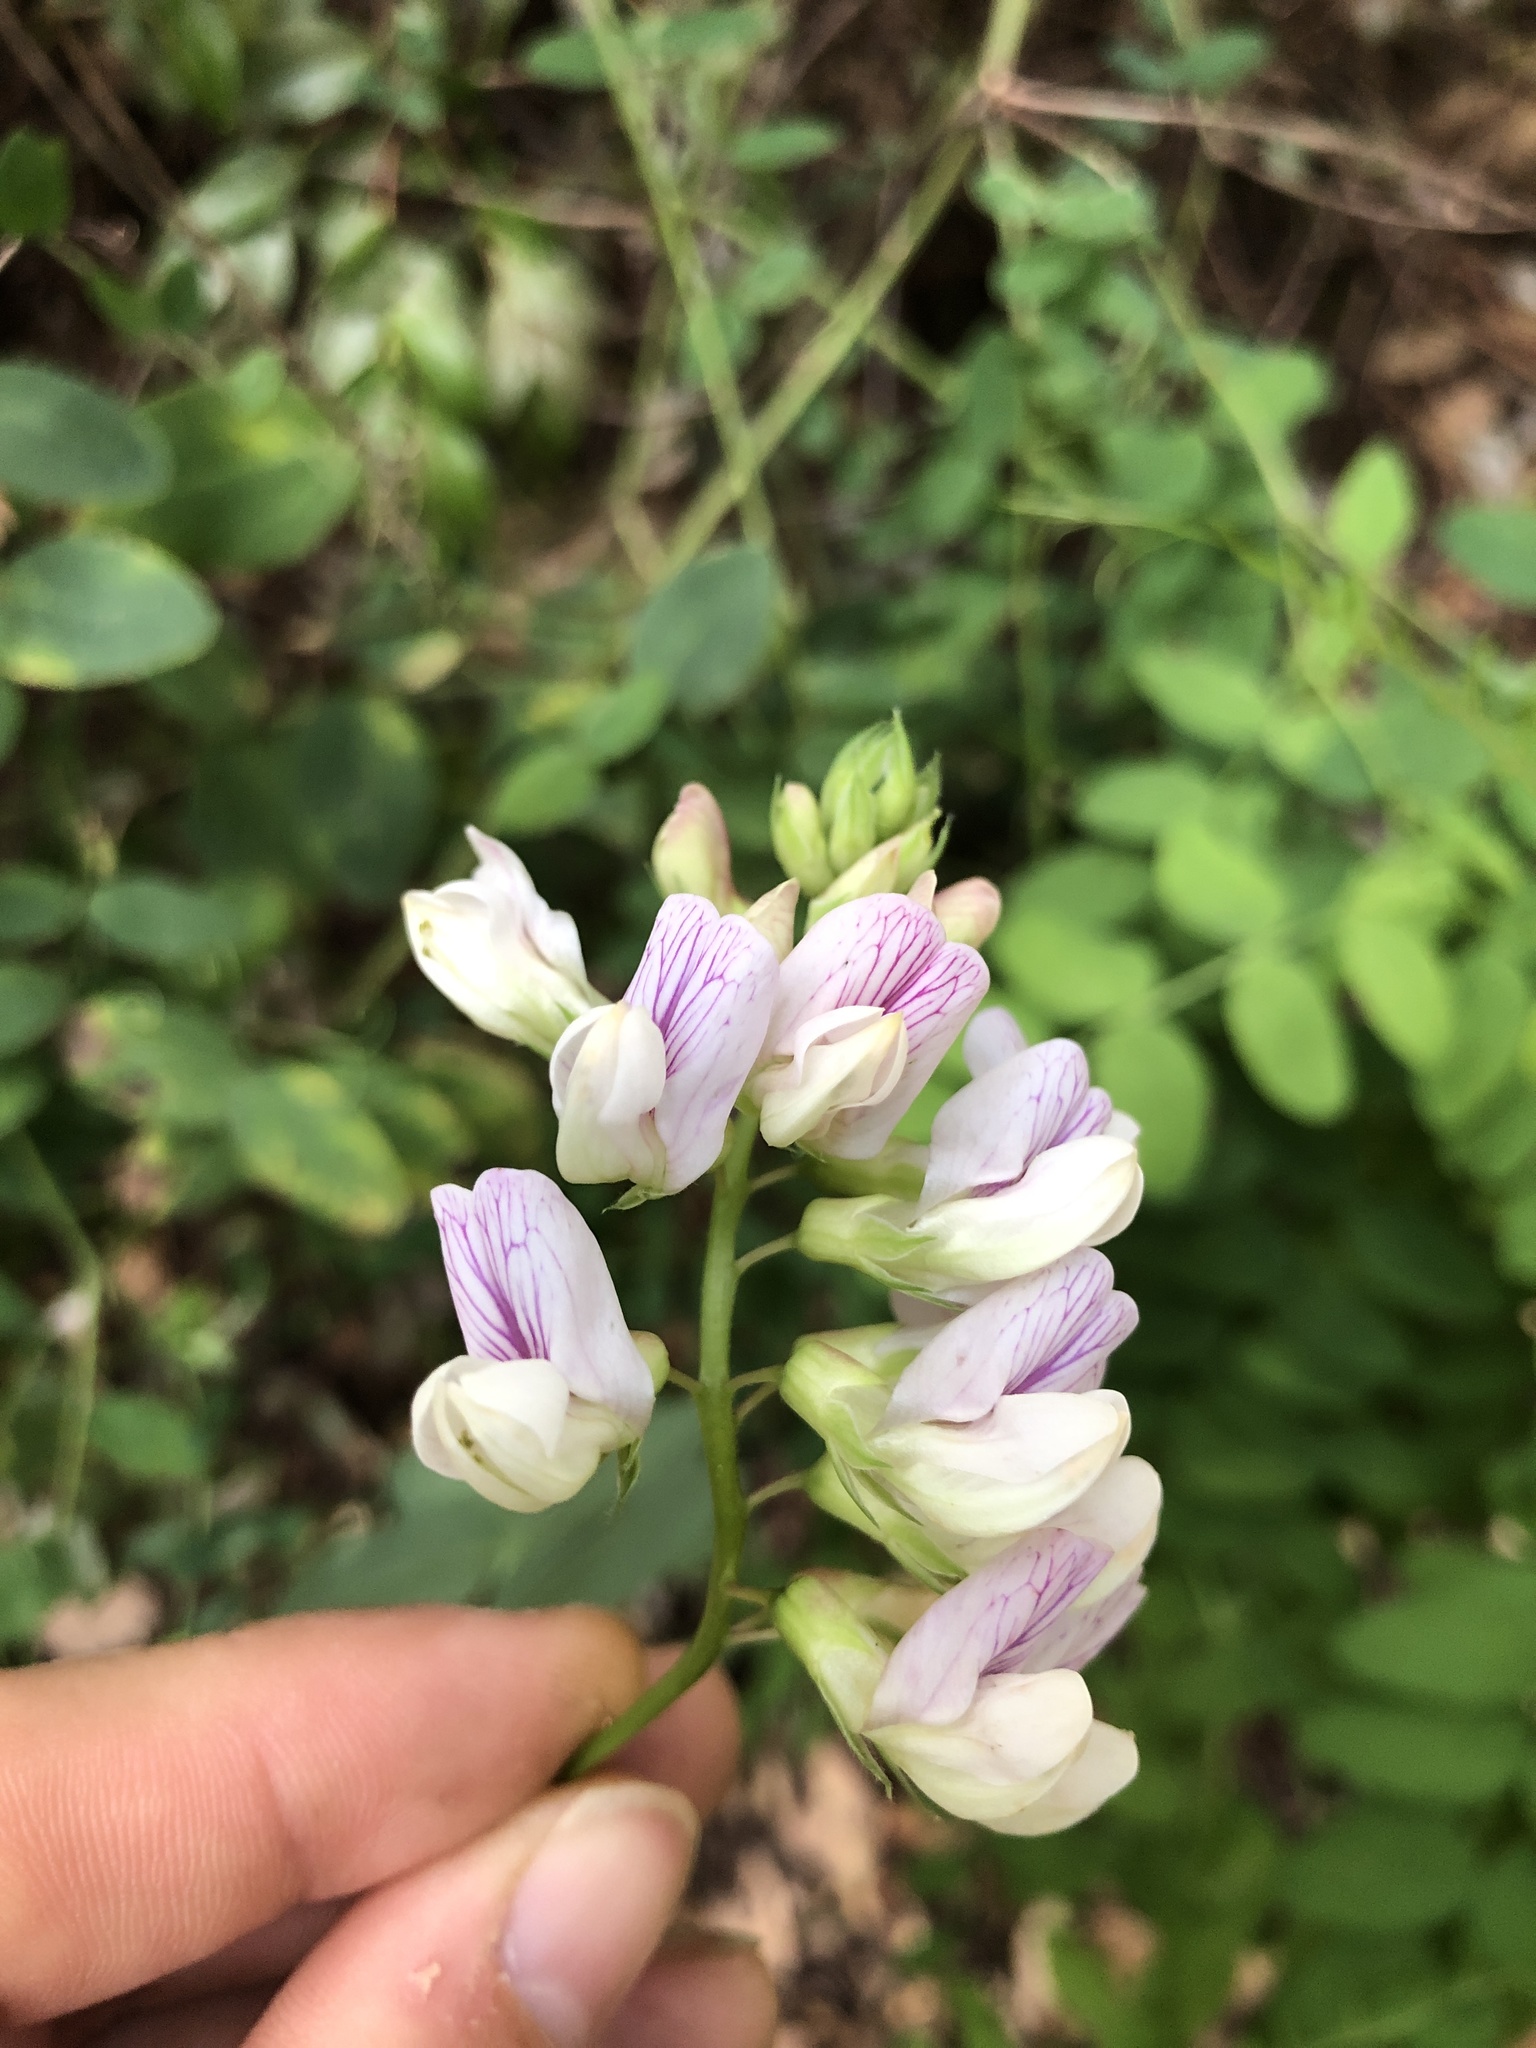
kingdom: Plantae
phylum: Tracheophyta
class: Magnoliopsida
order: Fabales
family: Fabaceae
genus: Lathyrus
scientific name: Lathyrus vestitus
